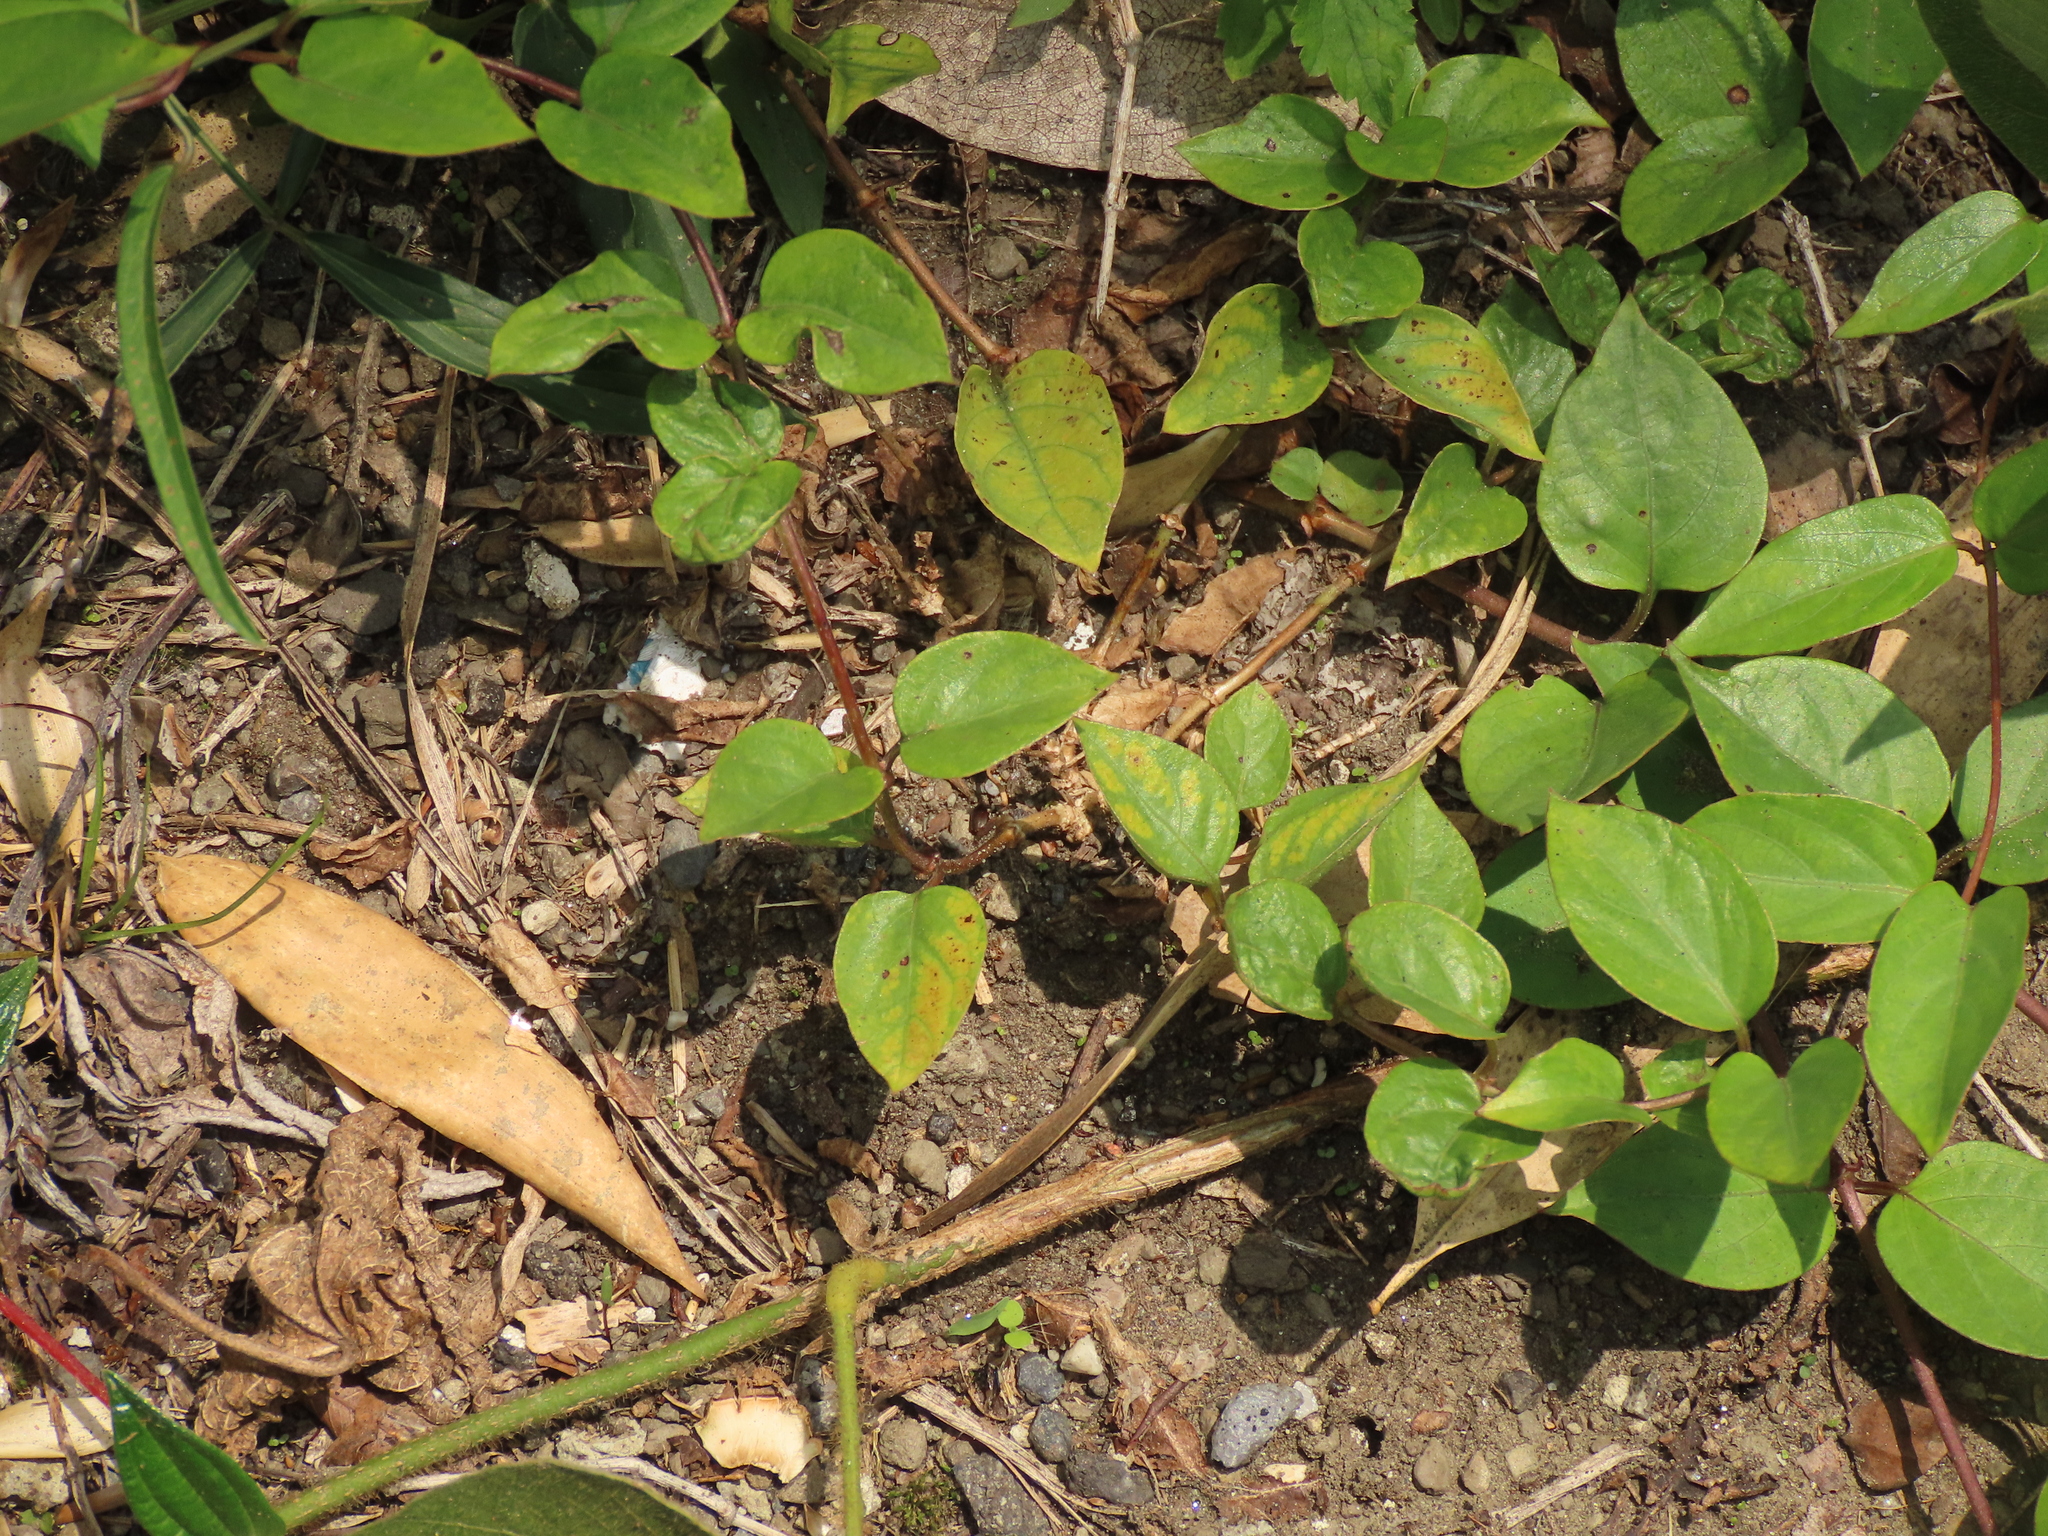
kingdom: Plantae
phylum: Tracheophyta
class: Magnoliopsida
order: Gentianales
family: Rubiaceae
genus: Paederia
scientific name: Paederia foetida
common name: Stinkvine
